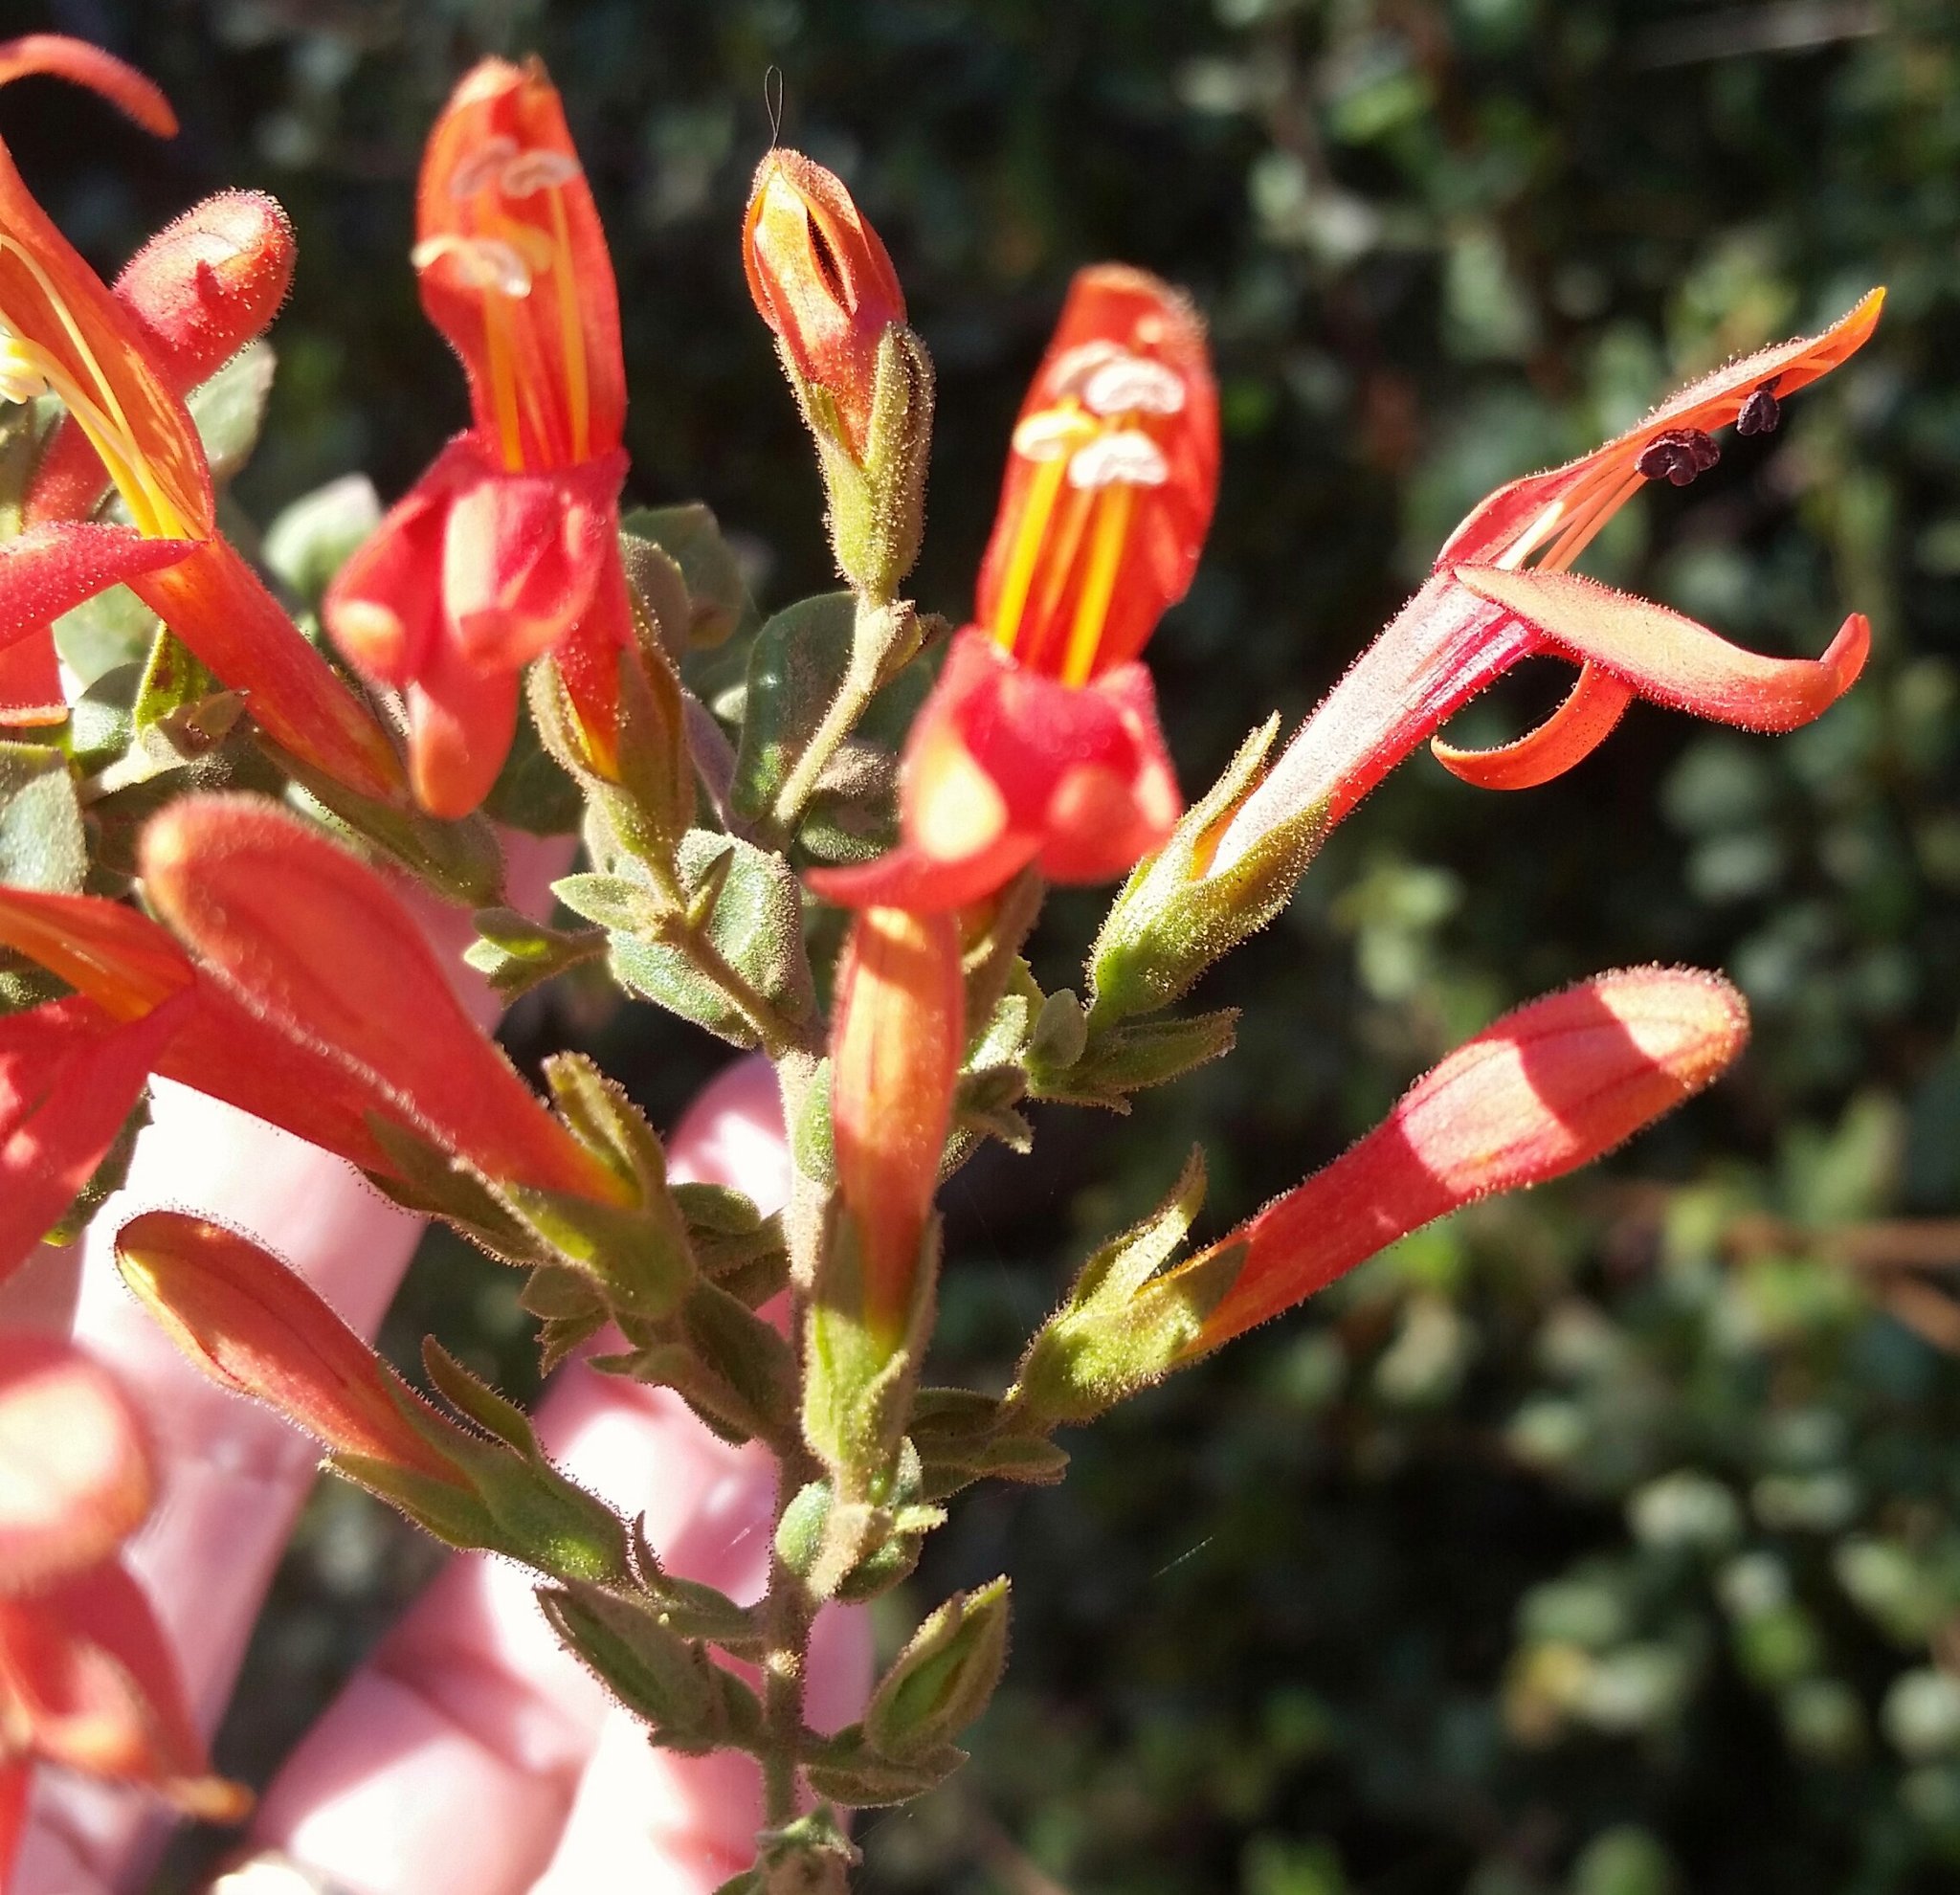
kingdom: Plantae
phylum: Tracheophyta
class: Magnoliopsida
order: Lamiales
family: Plantaginaceae
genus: Keckiella
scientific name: Keckiella cordifolia
